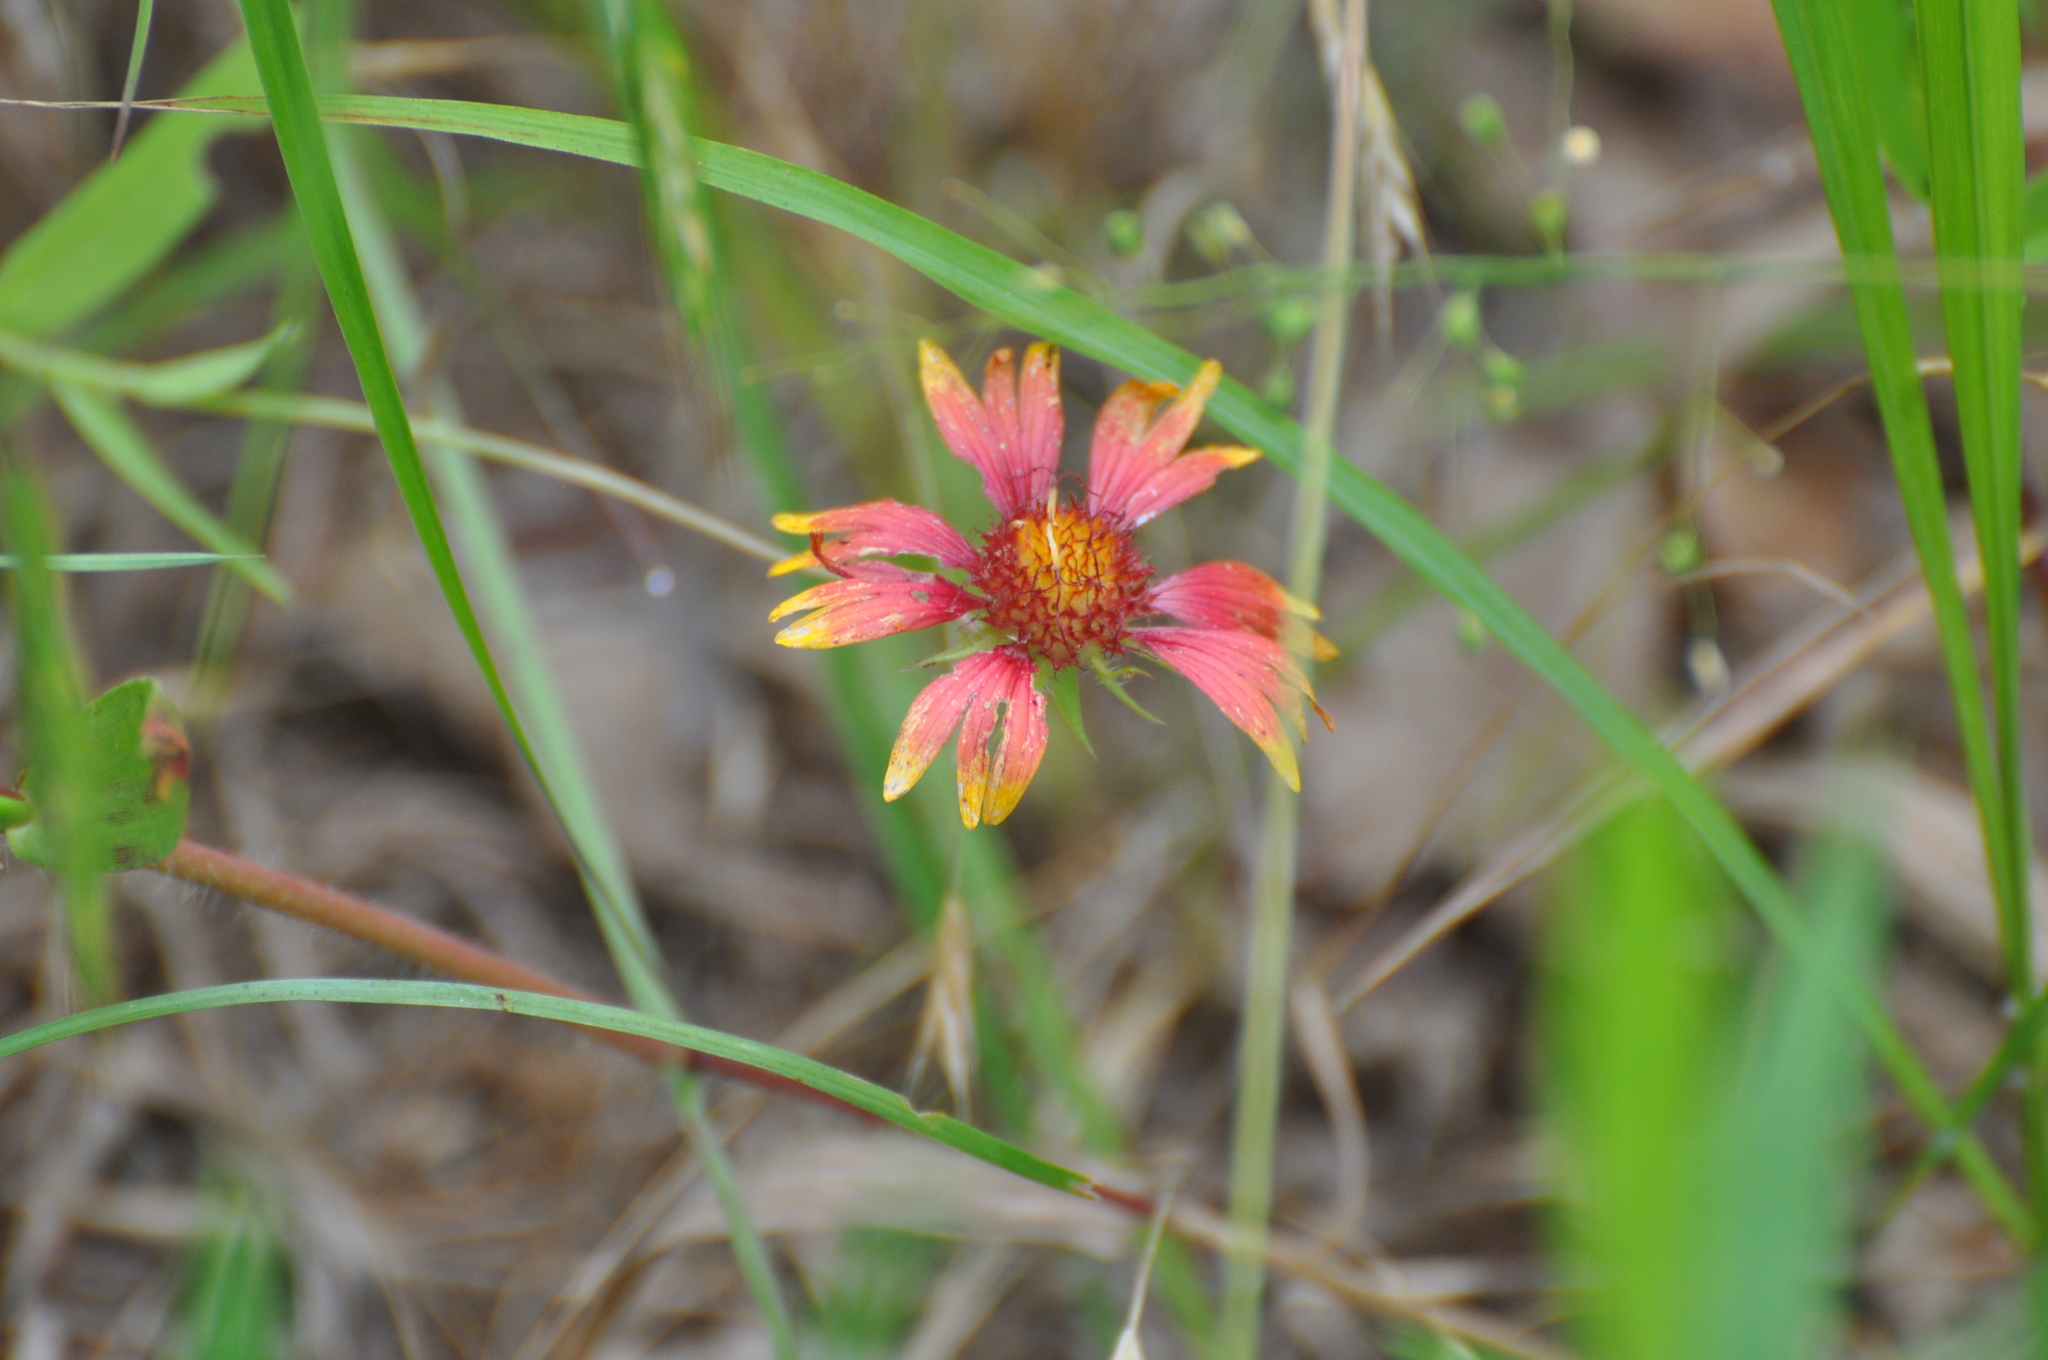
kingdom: Plantae
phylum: Tracheophyta
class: Magnoliopsida
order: Asterales
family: Asteraceae
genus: Gaillardia
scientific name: Gaillardia pulchella
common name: Firewheel
